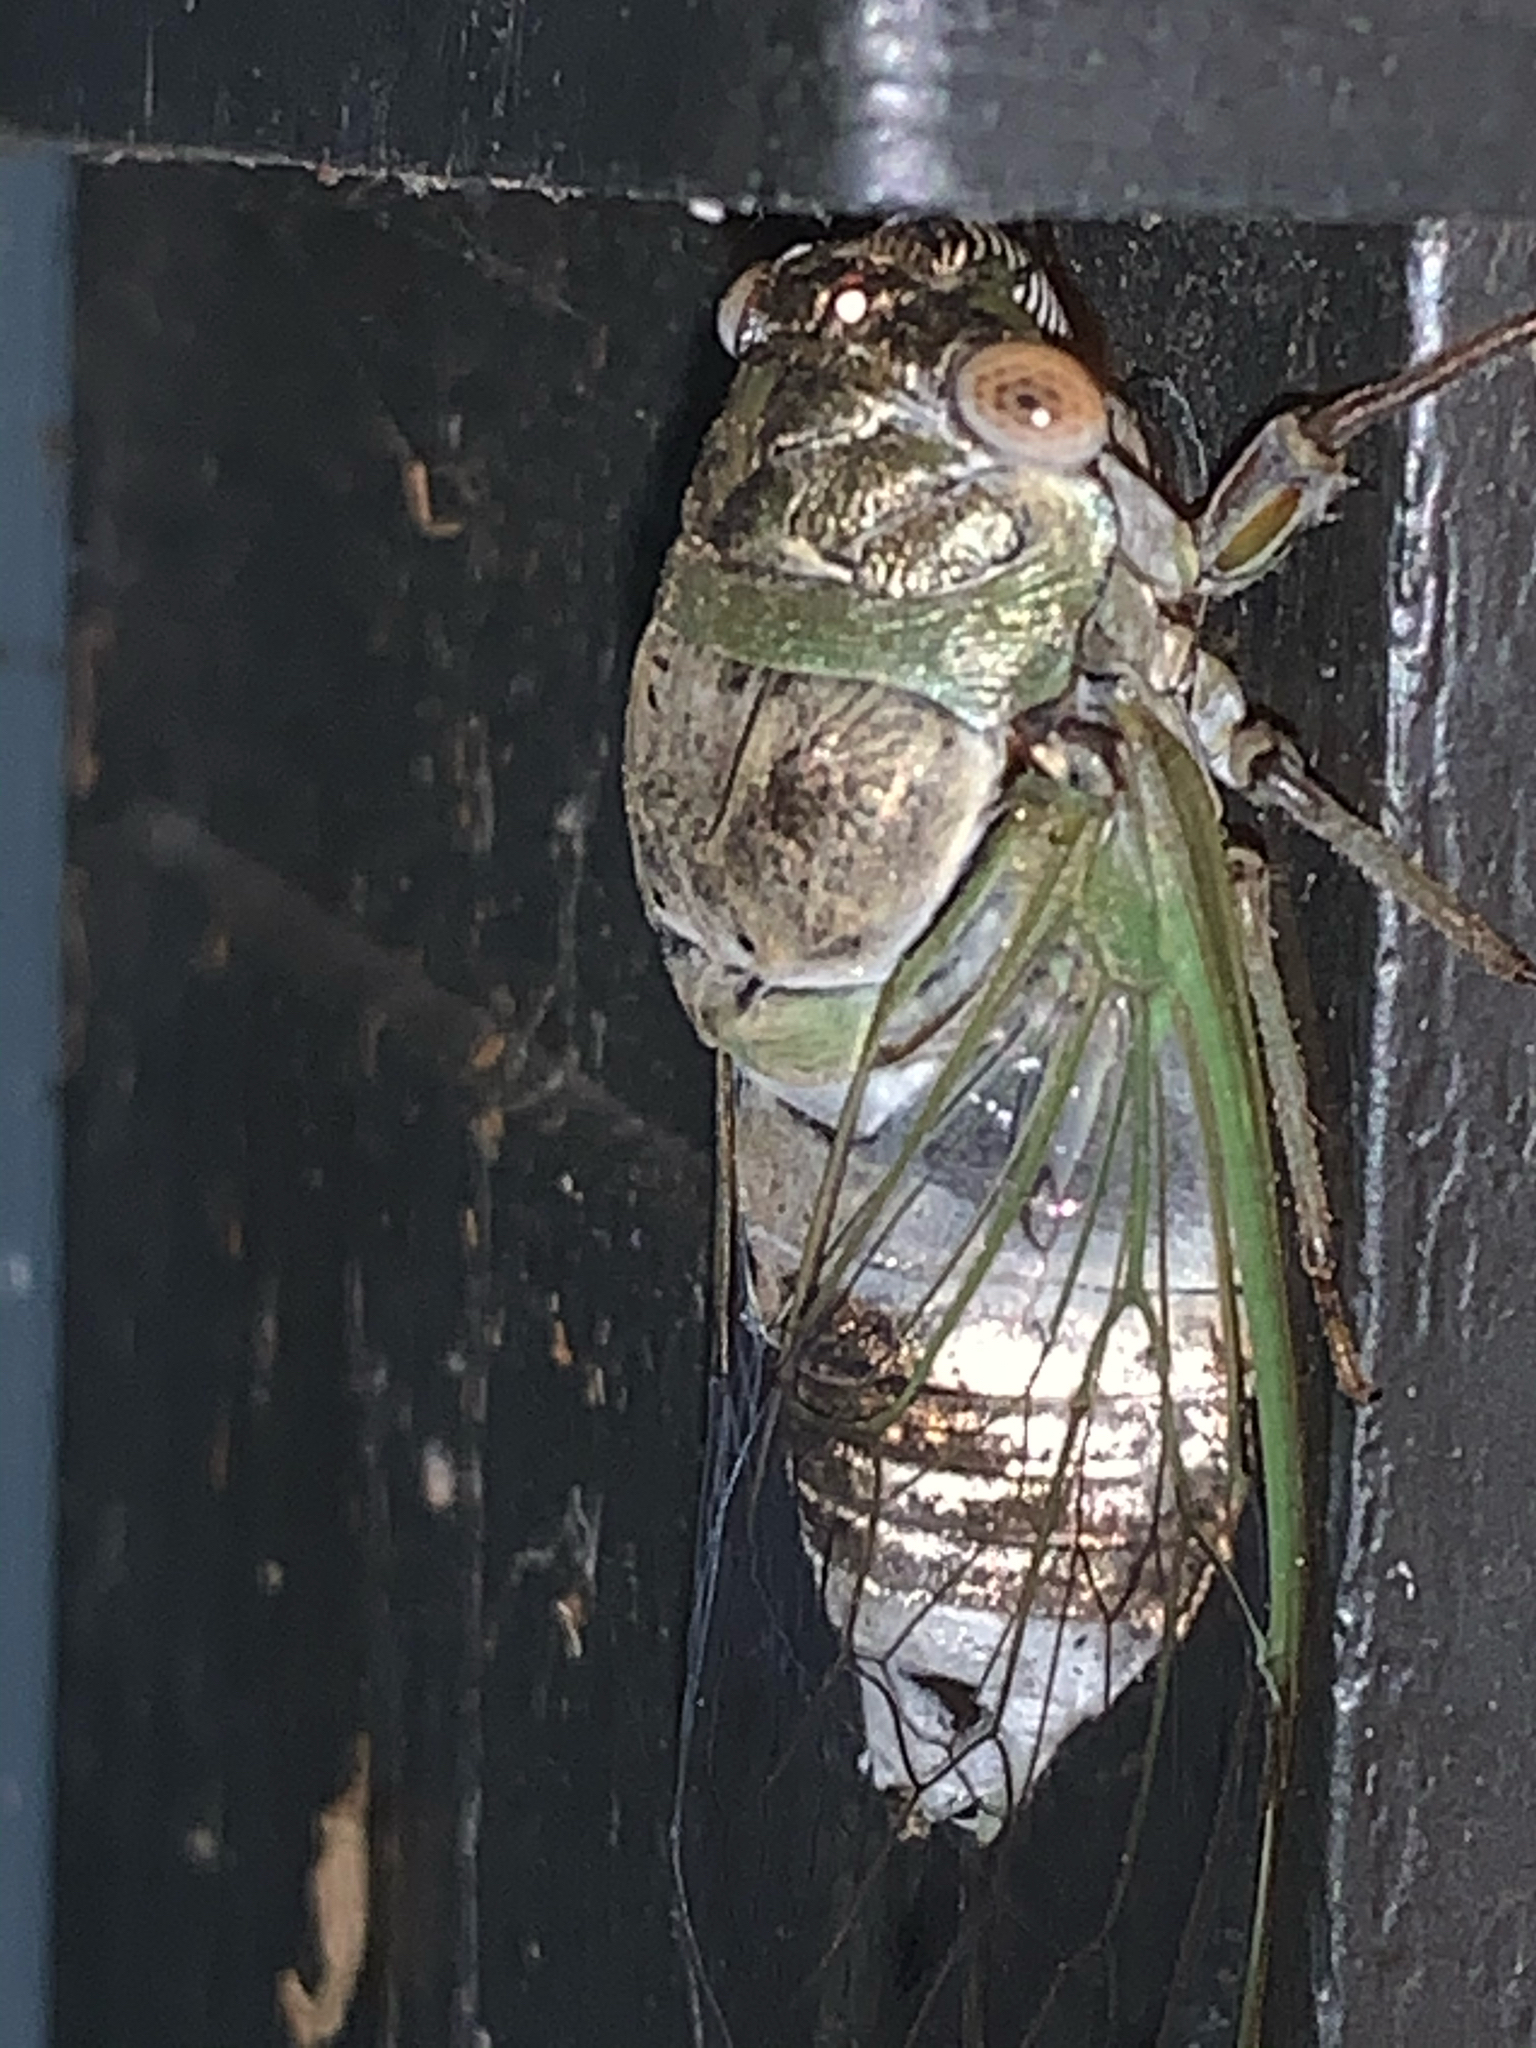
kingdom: Animalia
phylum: Arthropoda
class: Insecta
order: Hemiptera
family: Cicadidae
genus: Diceroprocta
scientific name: Diceroprocta grossa
